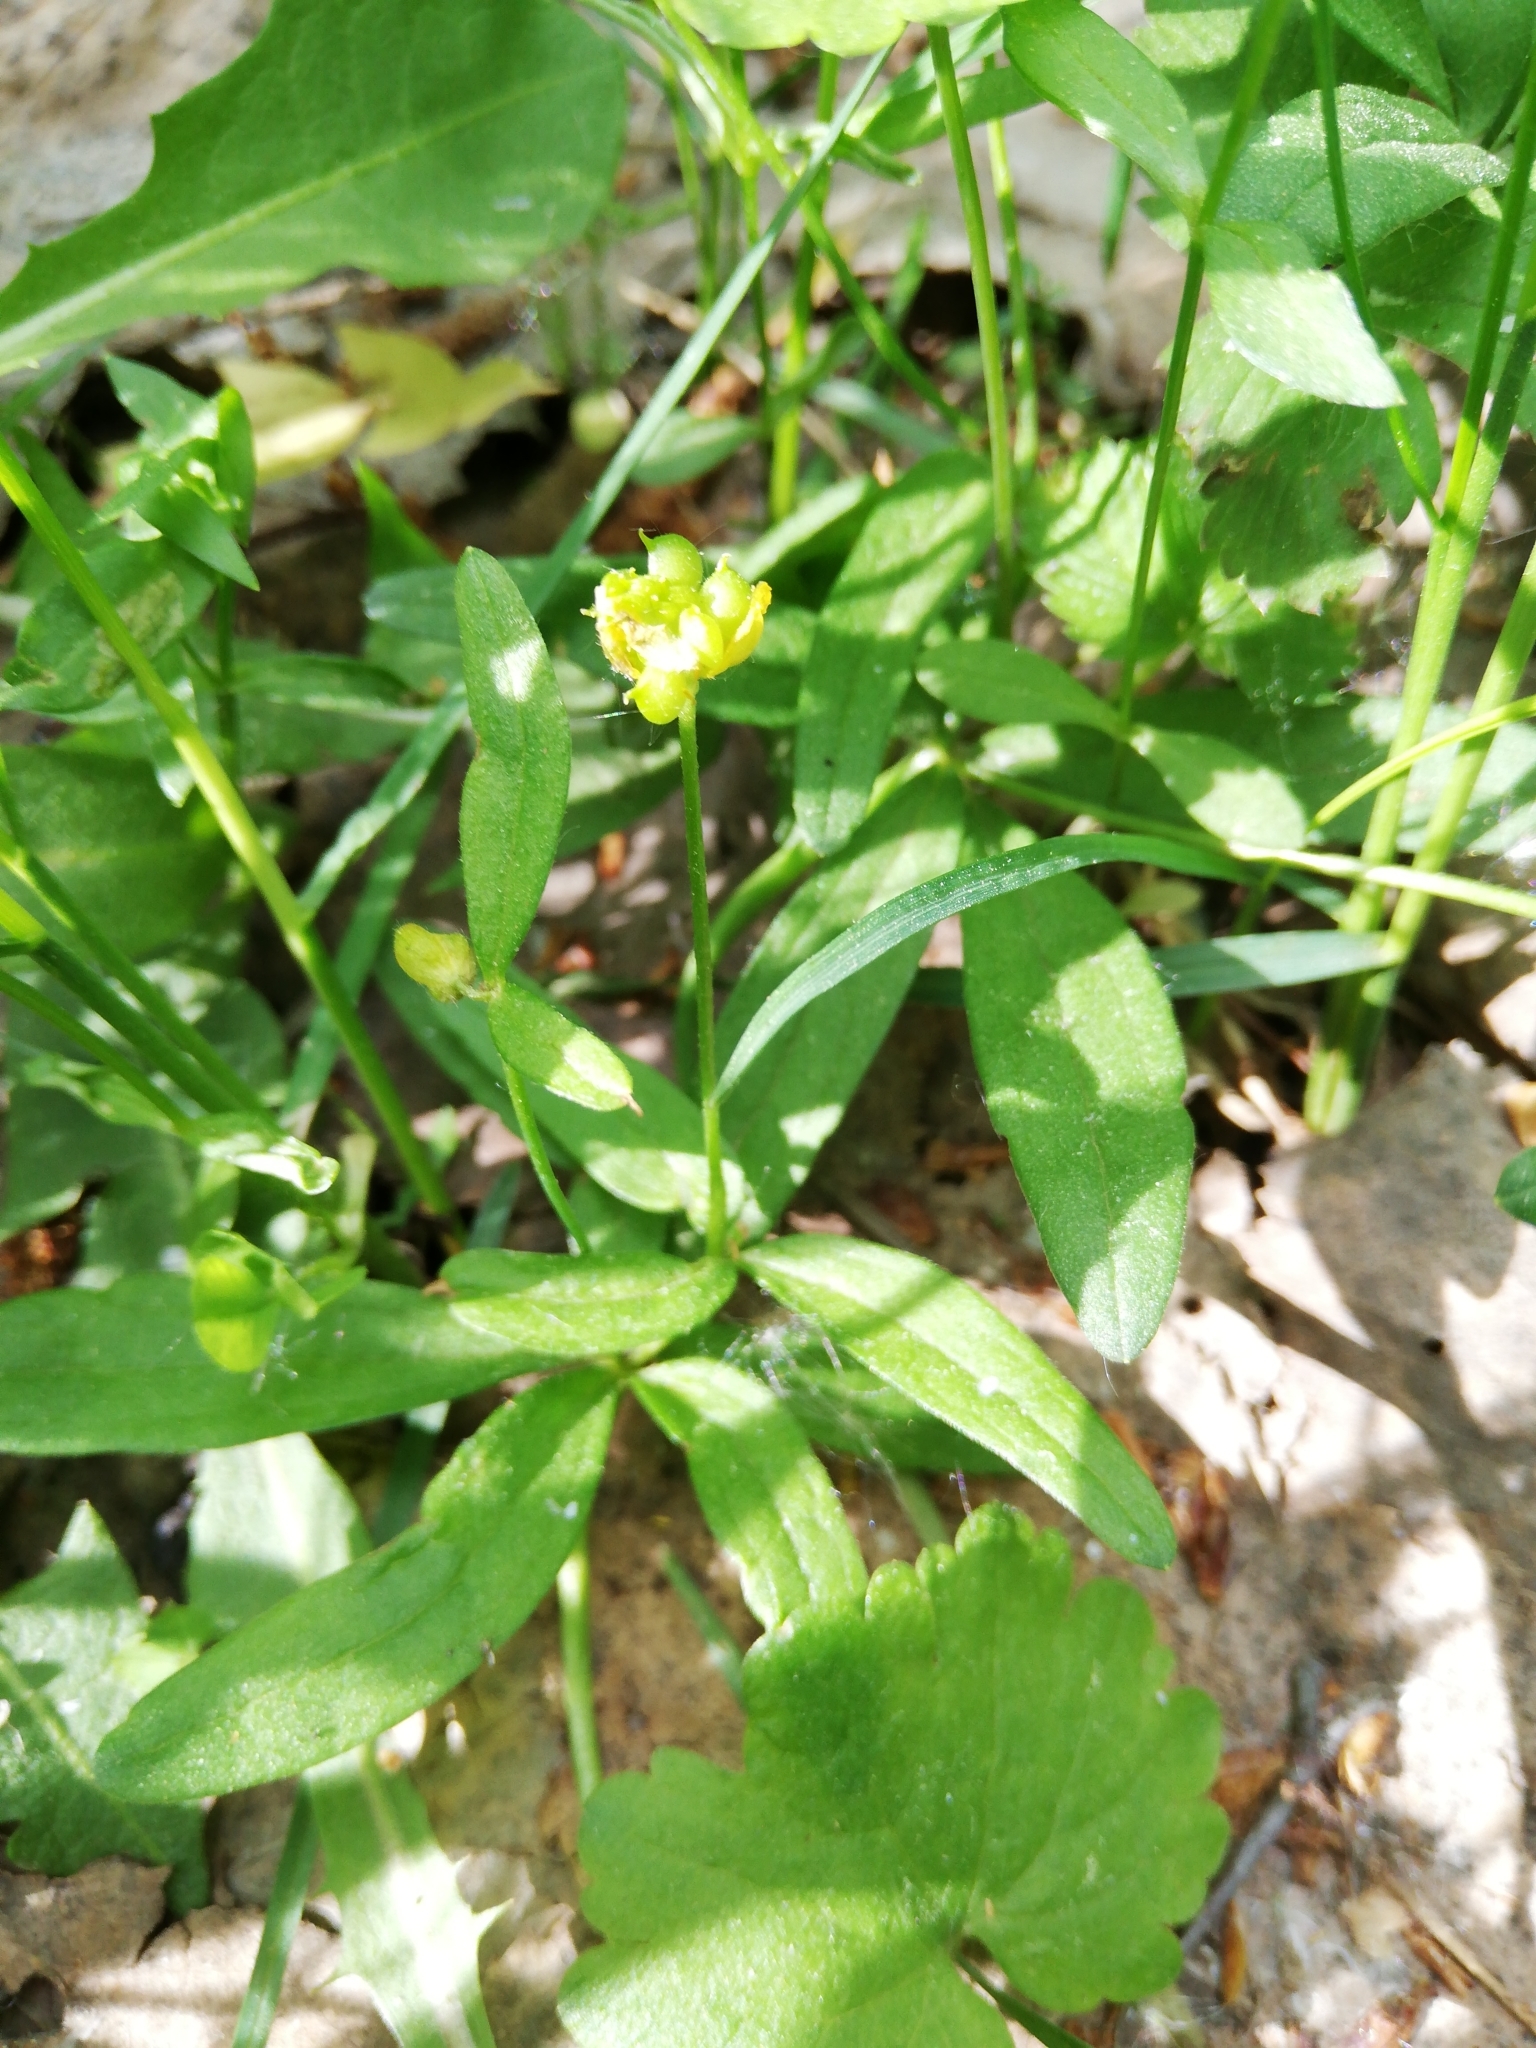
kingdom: Plantae
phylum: Tracheophyta
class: Magnoliopsida
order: Ranunculales
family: Ranunculaceae
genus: Ranunculus
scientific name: Ranunculus monophyllus
